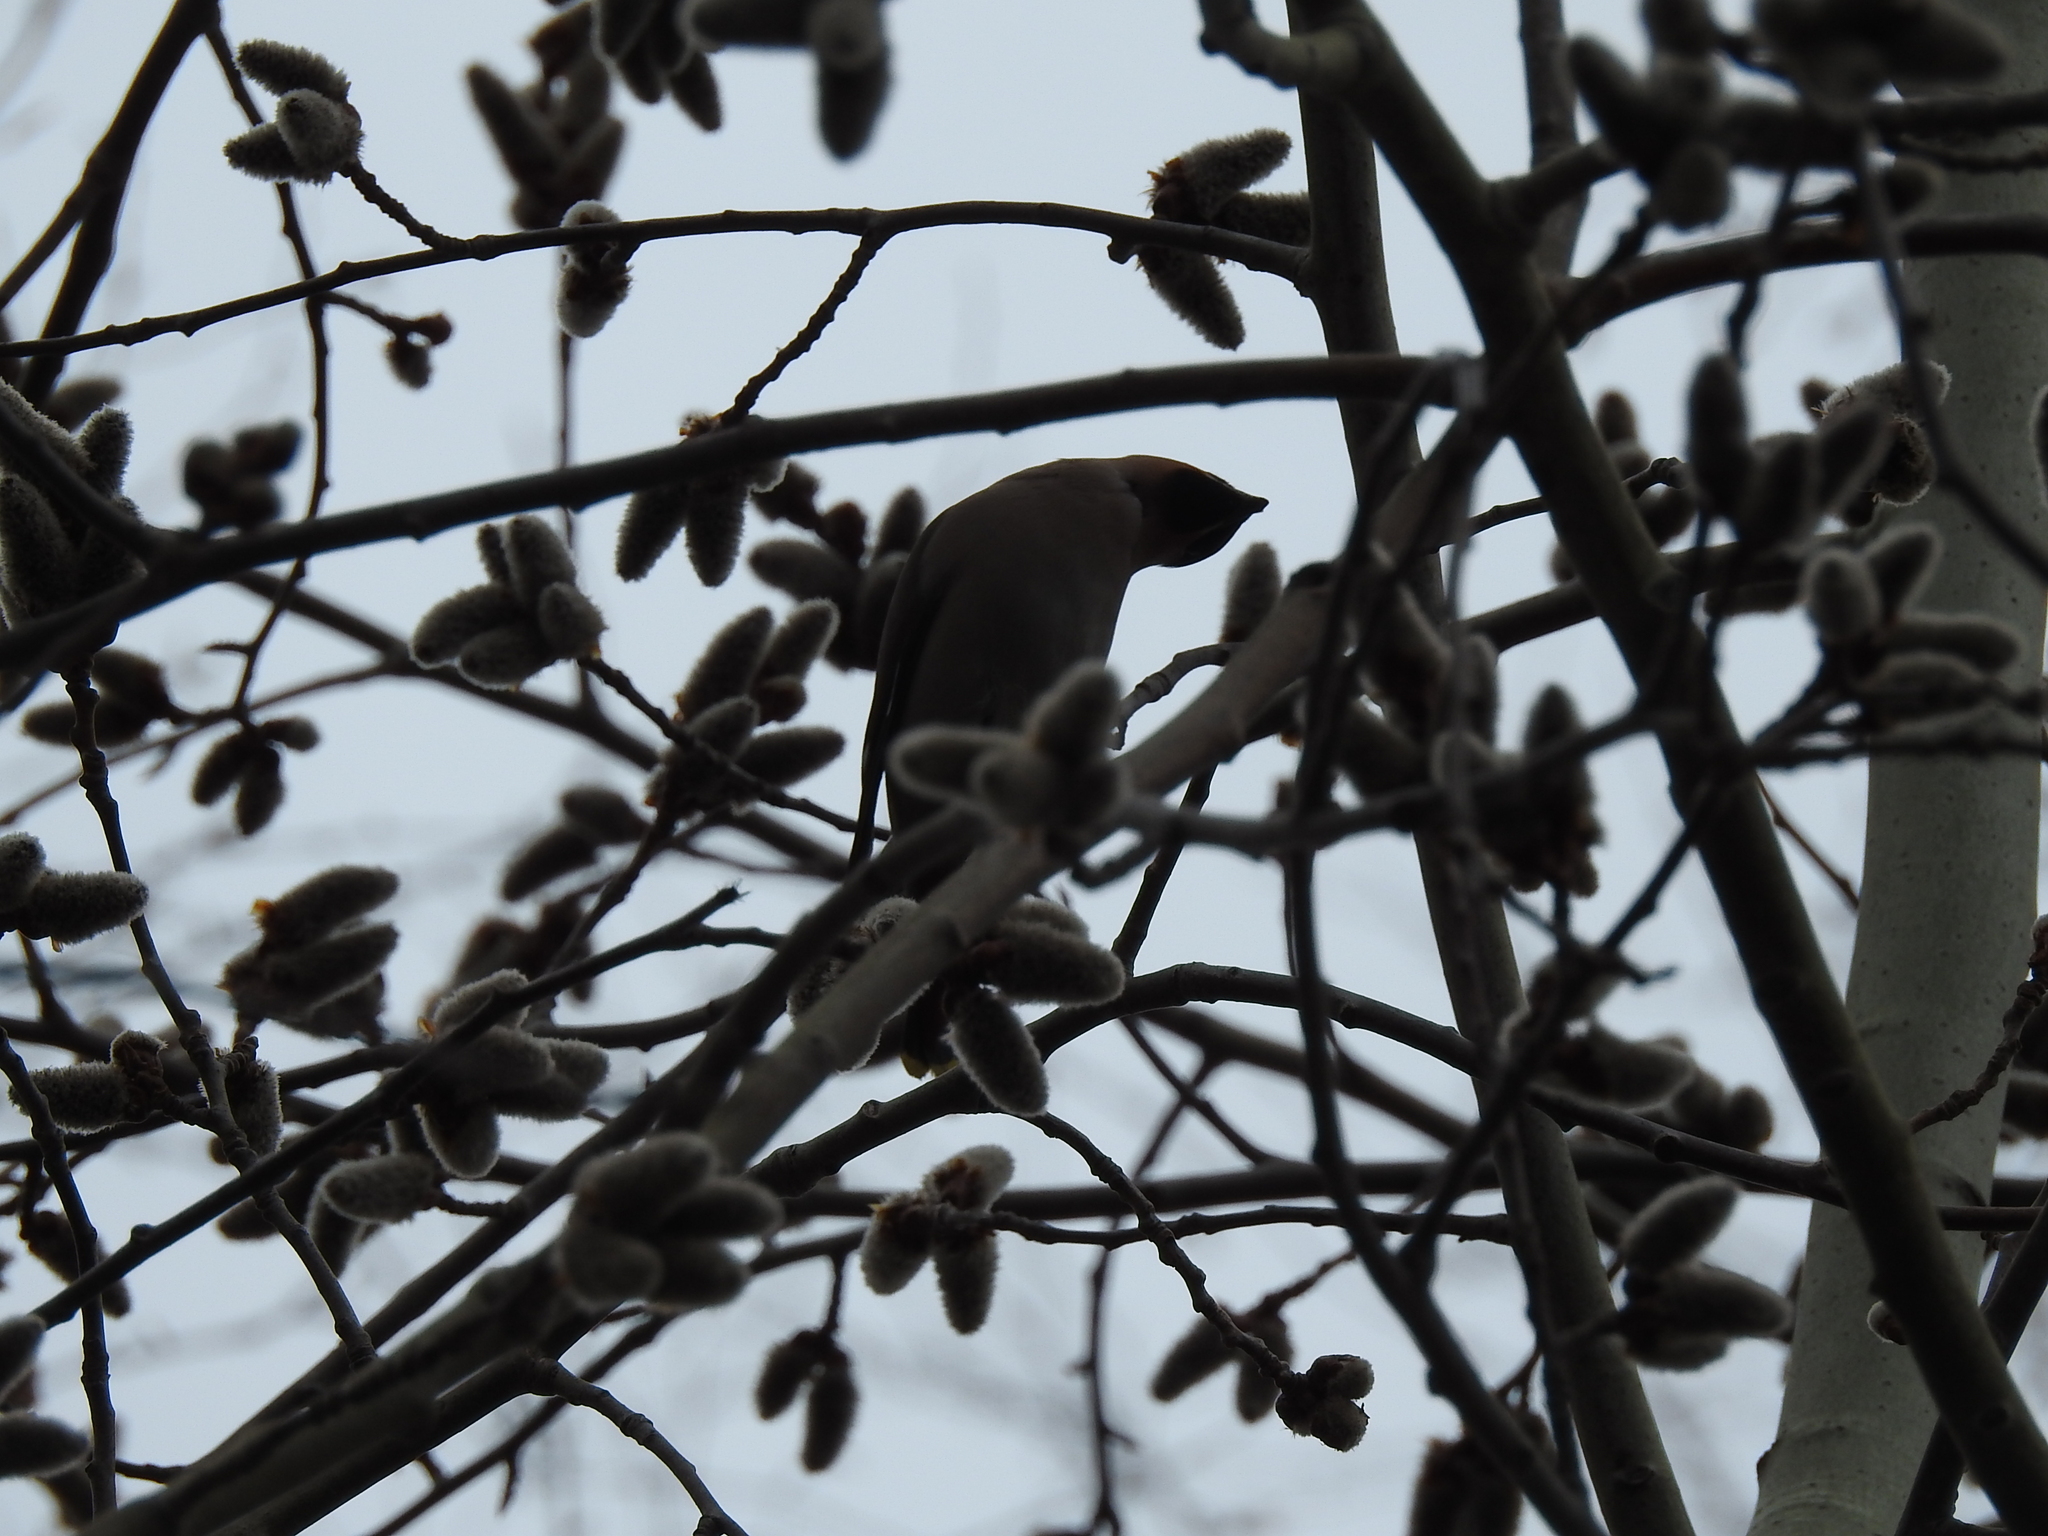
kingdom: Animalia
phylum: Chordata
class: Aves
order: Passeriformes
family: Bombycillidae
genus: Bombycilla
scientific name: Bombycilla garrulus
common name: Bohemian waxwing
